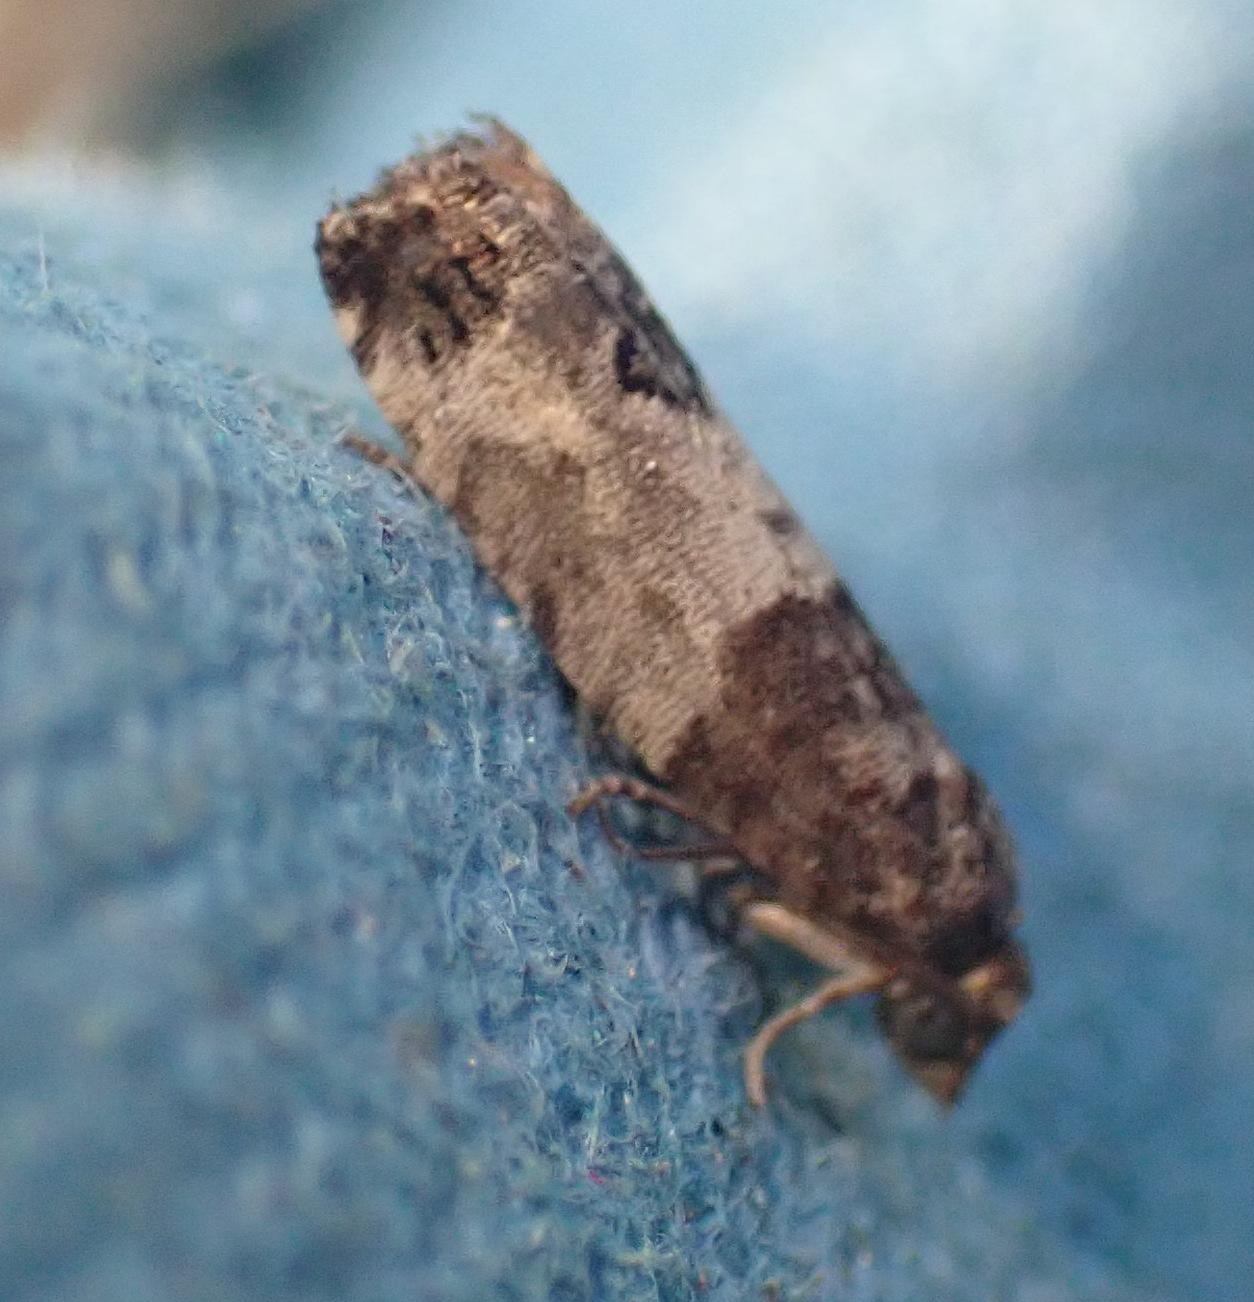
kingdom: Animalia
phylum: Arthropoda
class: Insecta
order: Lepidoptera
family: Tortricidae
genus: Spilonota
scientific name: Spilonota ocellana
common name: Bud moth
